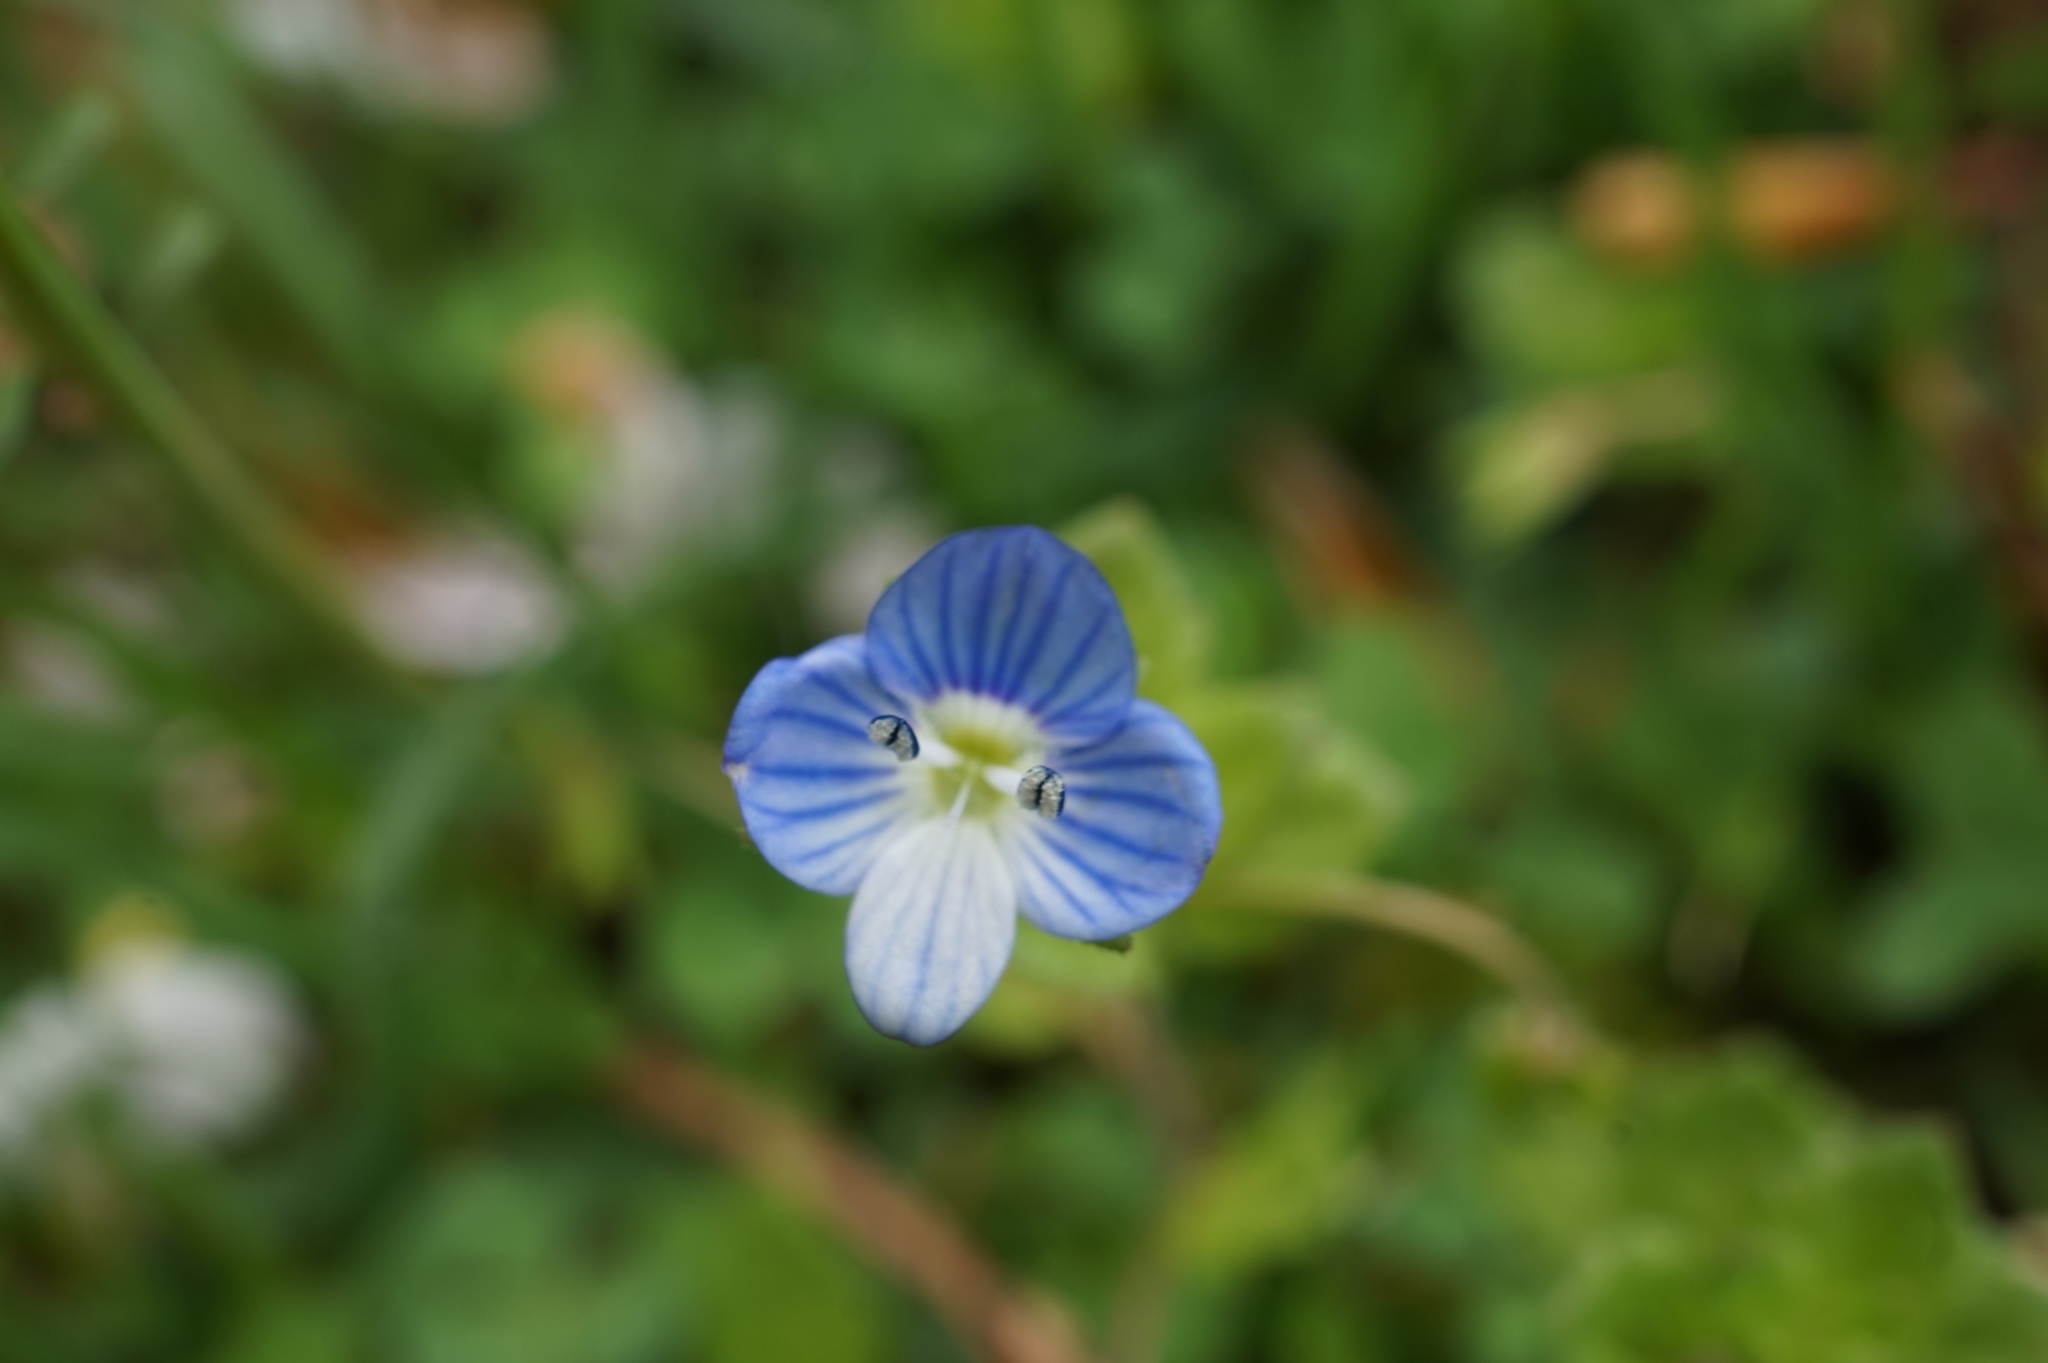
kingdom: Plantae
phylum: Tracheophyta
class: Magnoliopsida
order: Lamiales
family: Plantaginaceae
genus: Veronica
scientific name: Veronica persica
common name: Common field-speedwell
